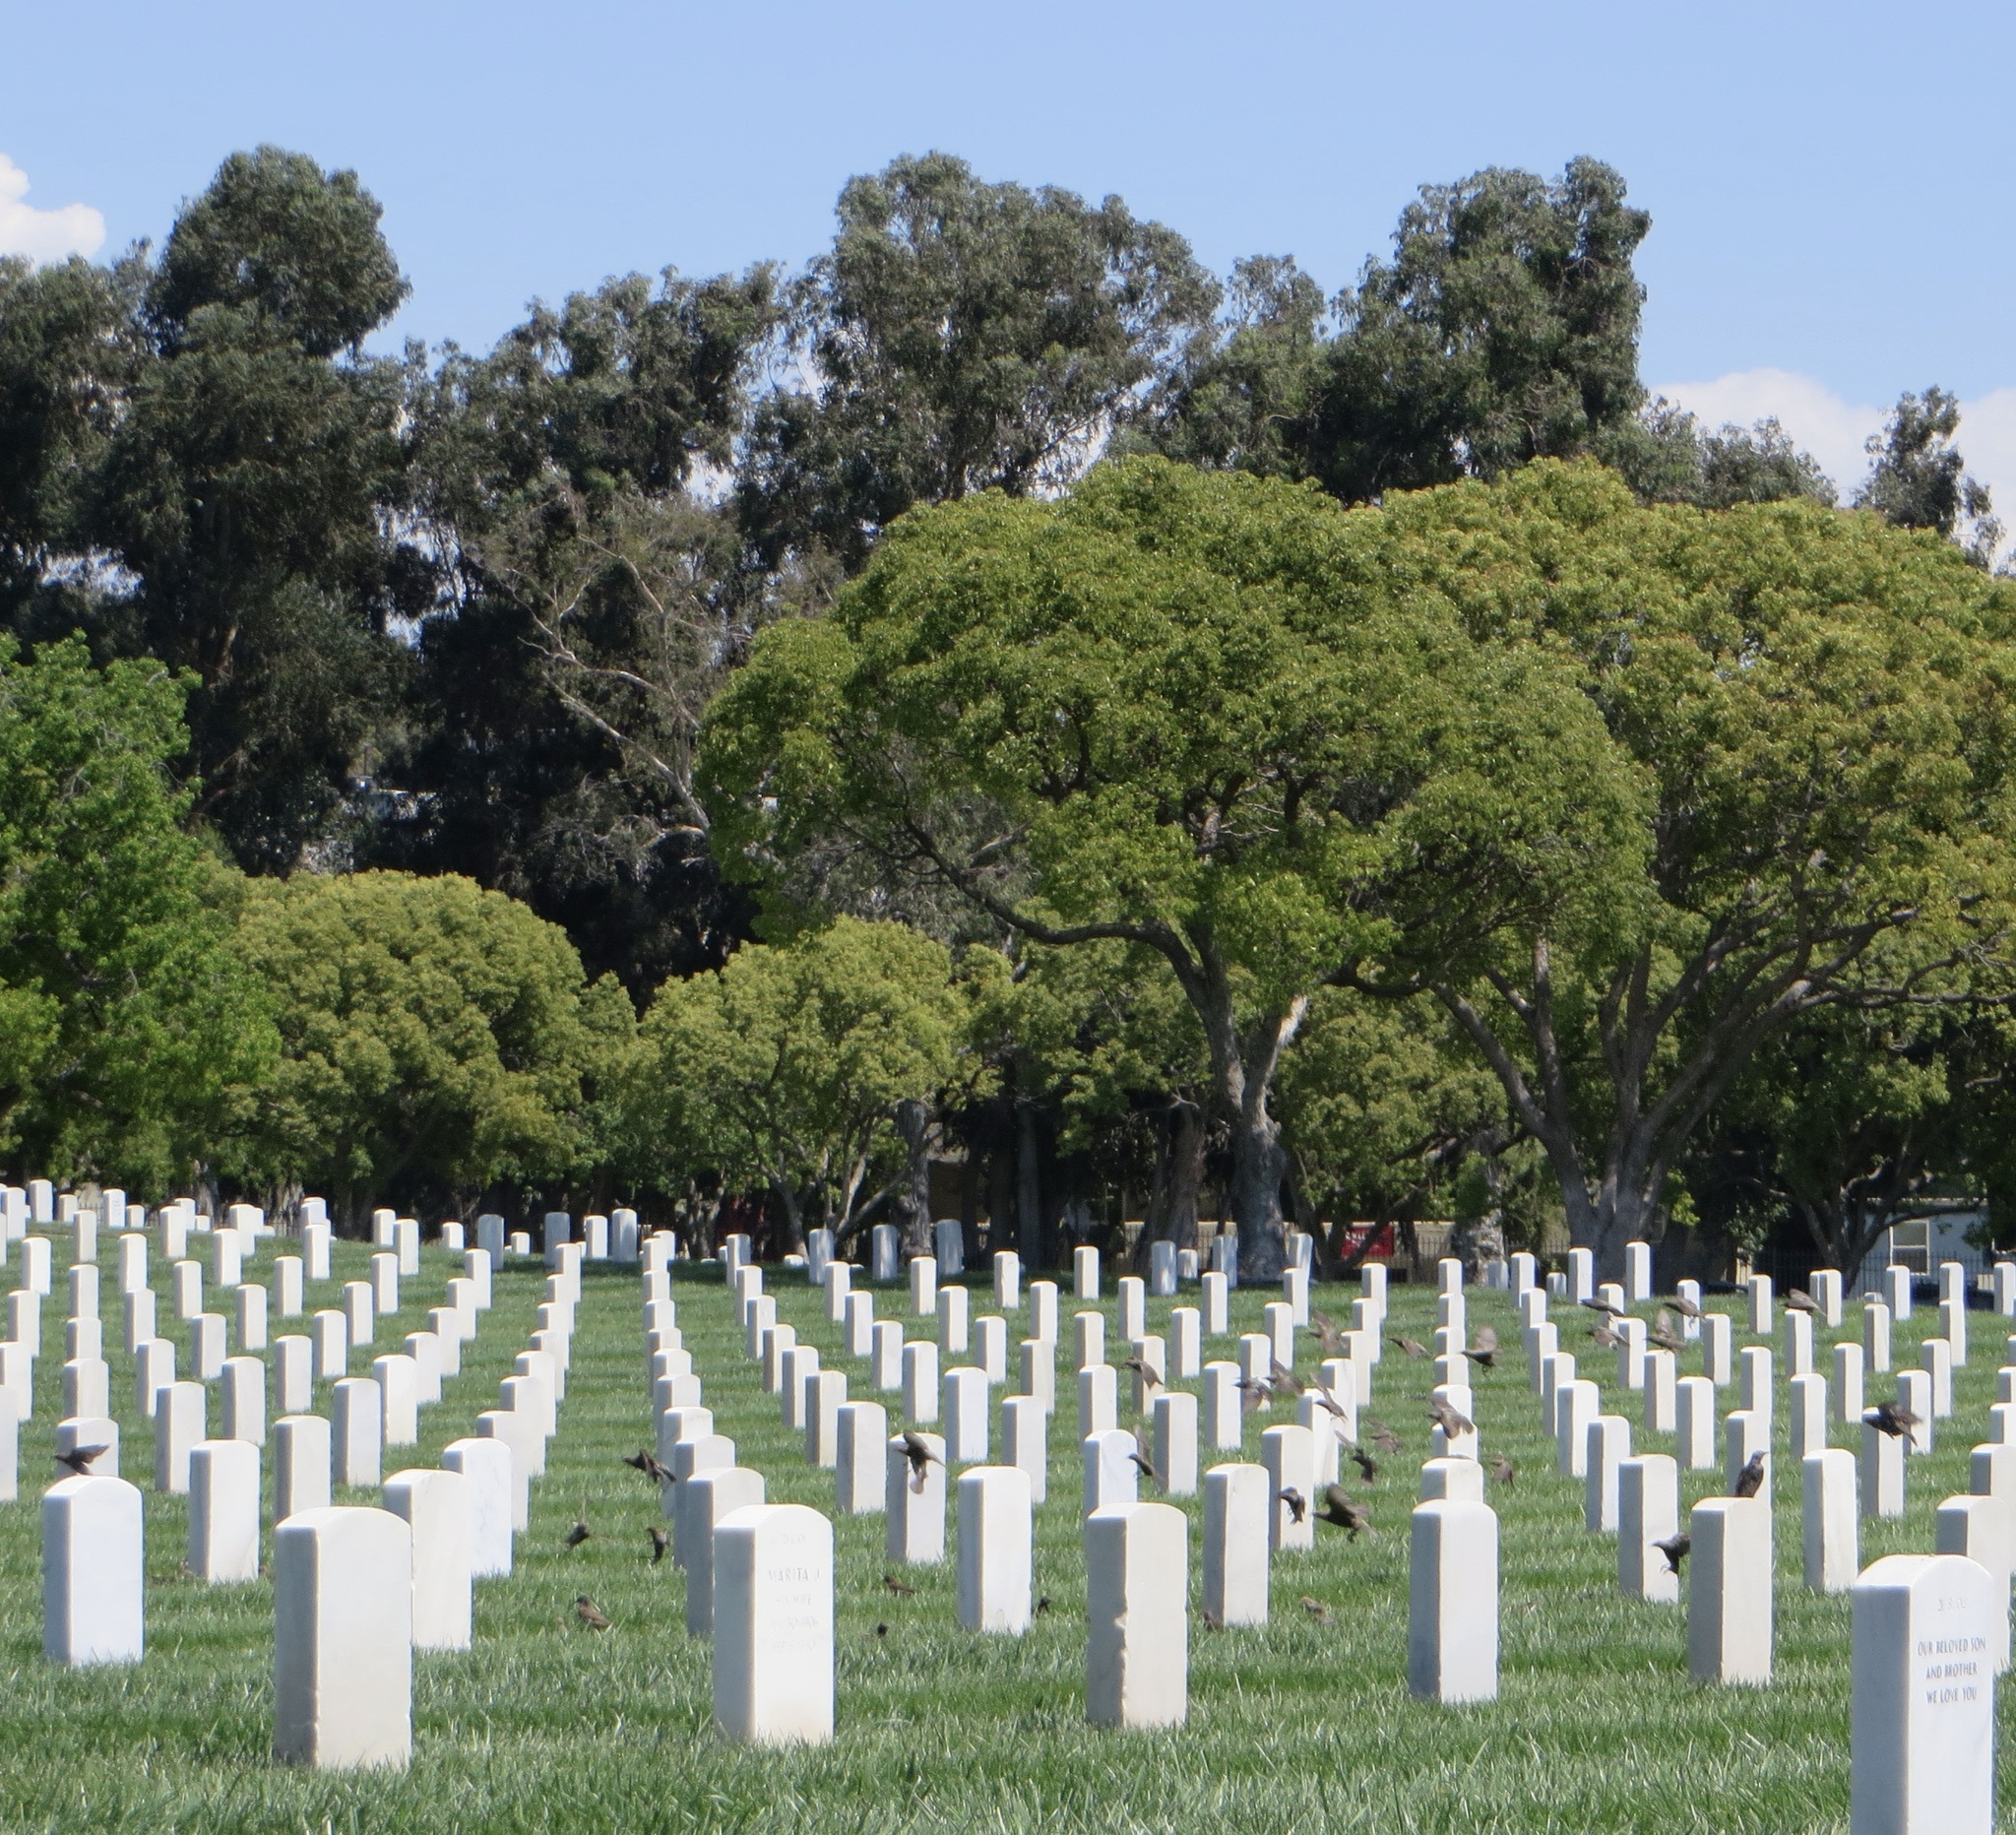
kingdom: Animalia
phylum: Chordata
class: Aves
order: Passeriformes
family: Sturnidae
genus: Sturnus
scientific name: Sturnus vulgaris
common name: Common starling
